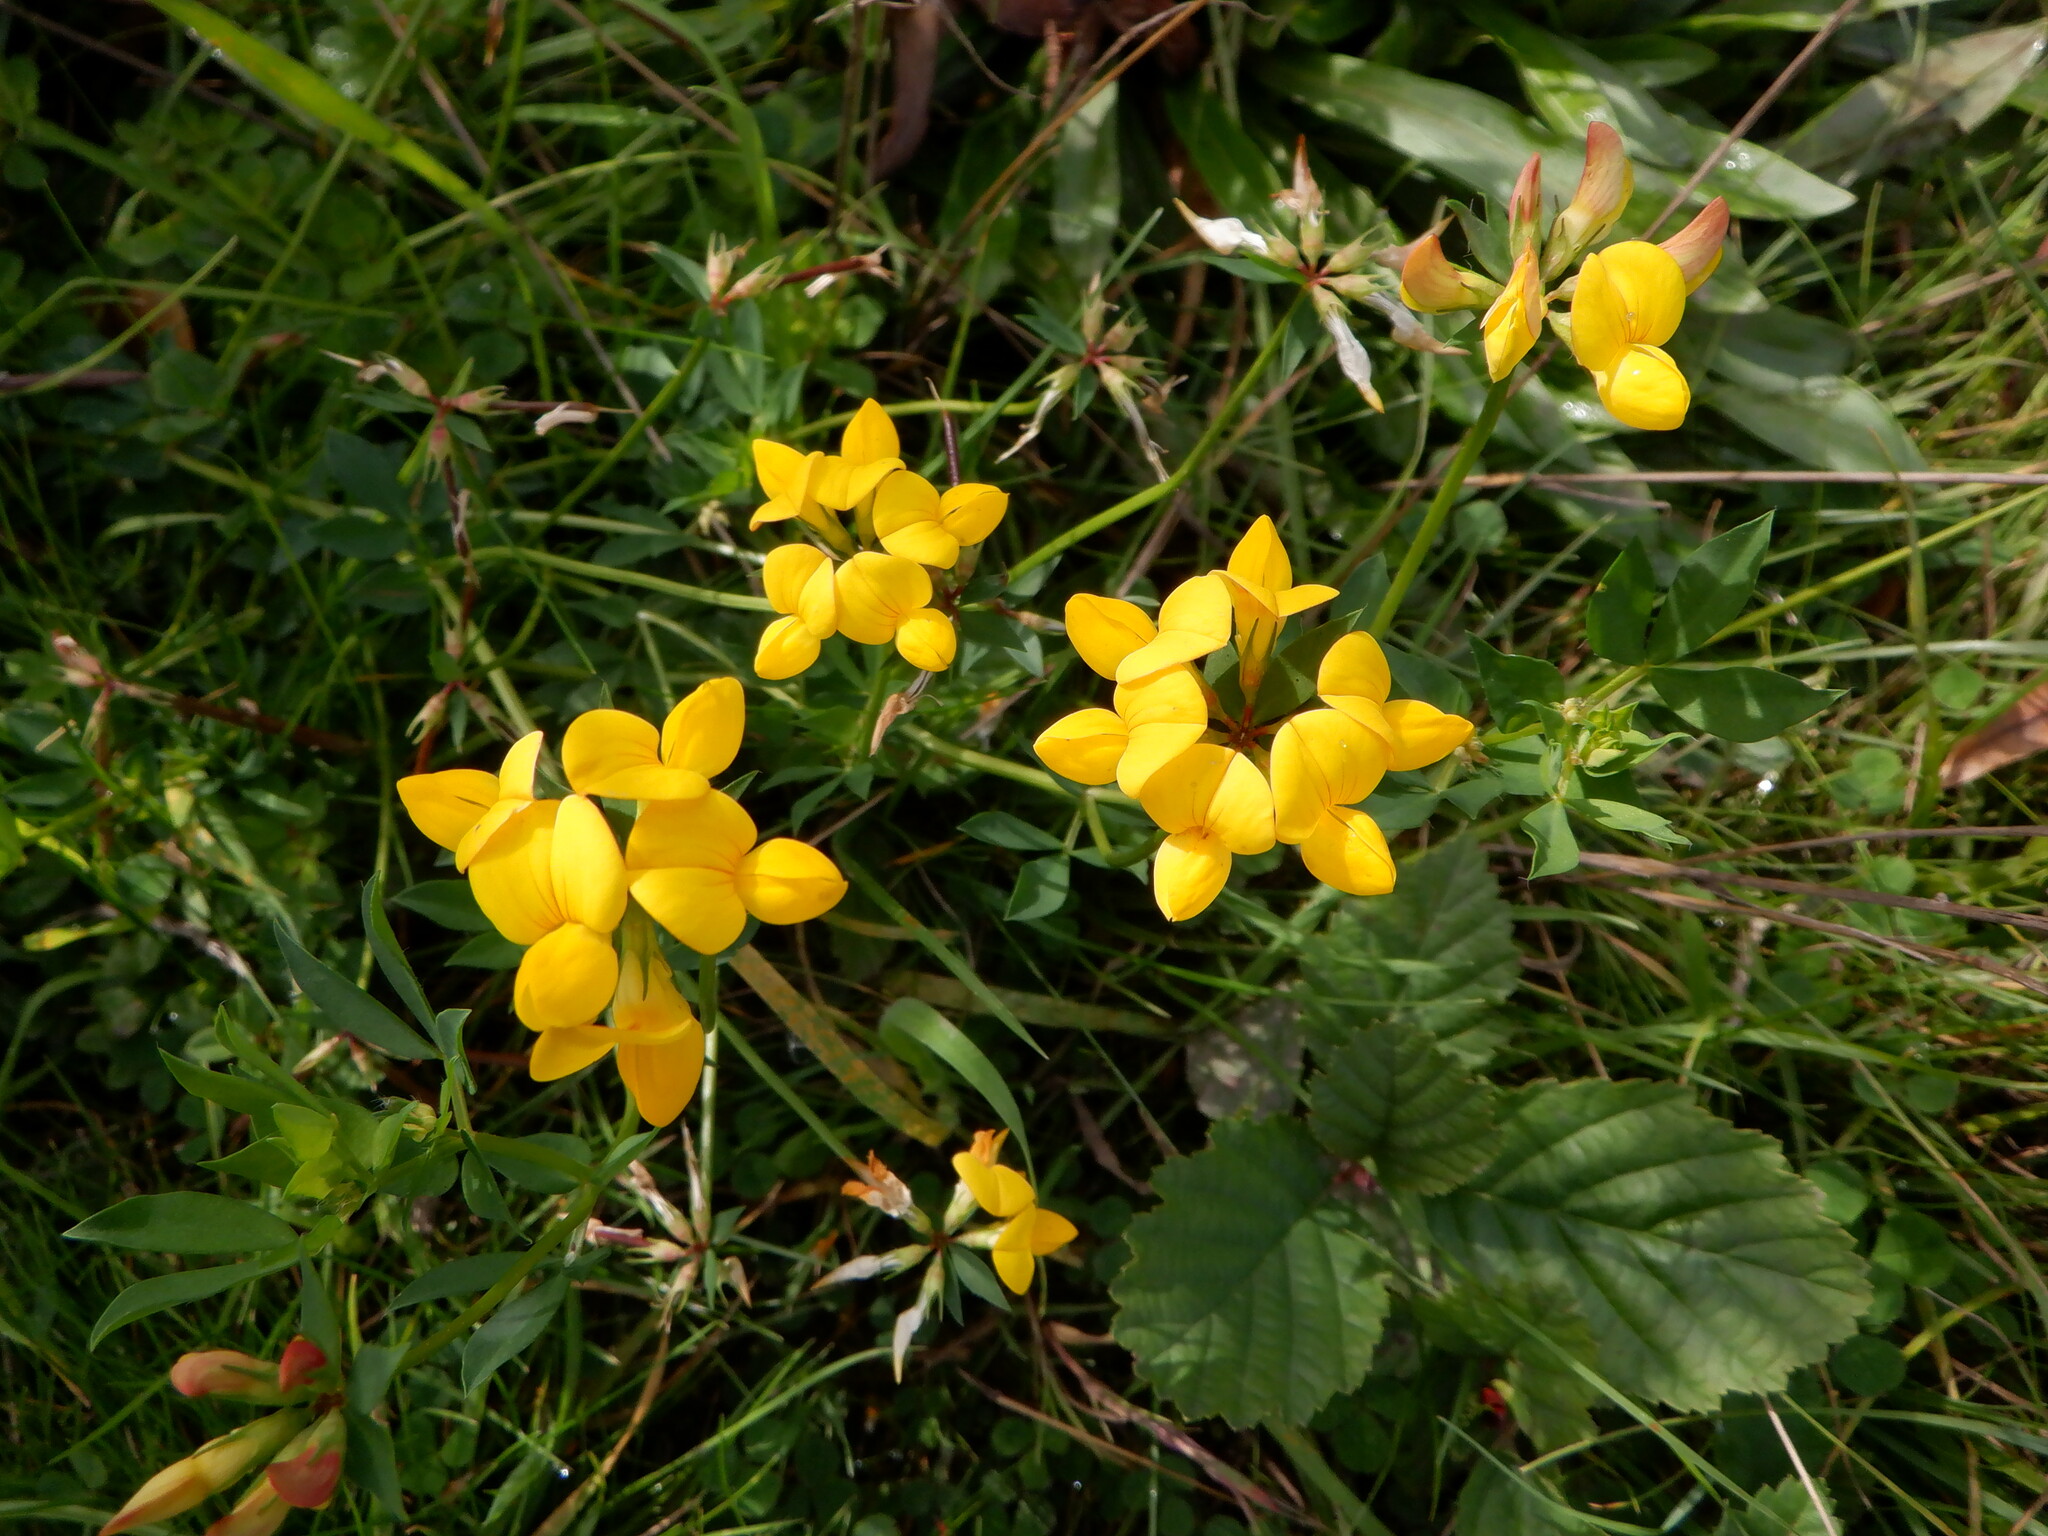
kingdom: Plantae
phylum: Tracheophyta
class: Magnoliopsida
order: Fabales
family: Fabaceae
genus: Lotus
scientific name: Lotus corniculatus
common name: Common bird's-foot-trefoil
